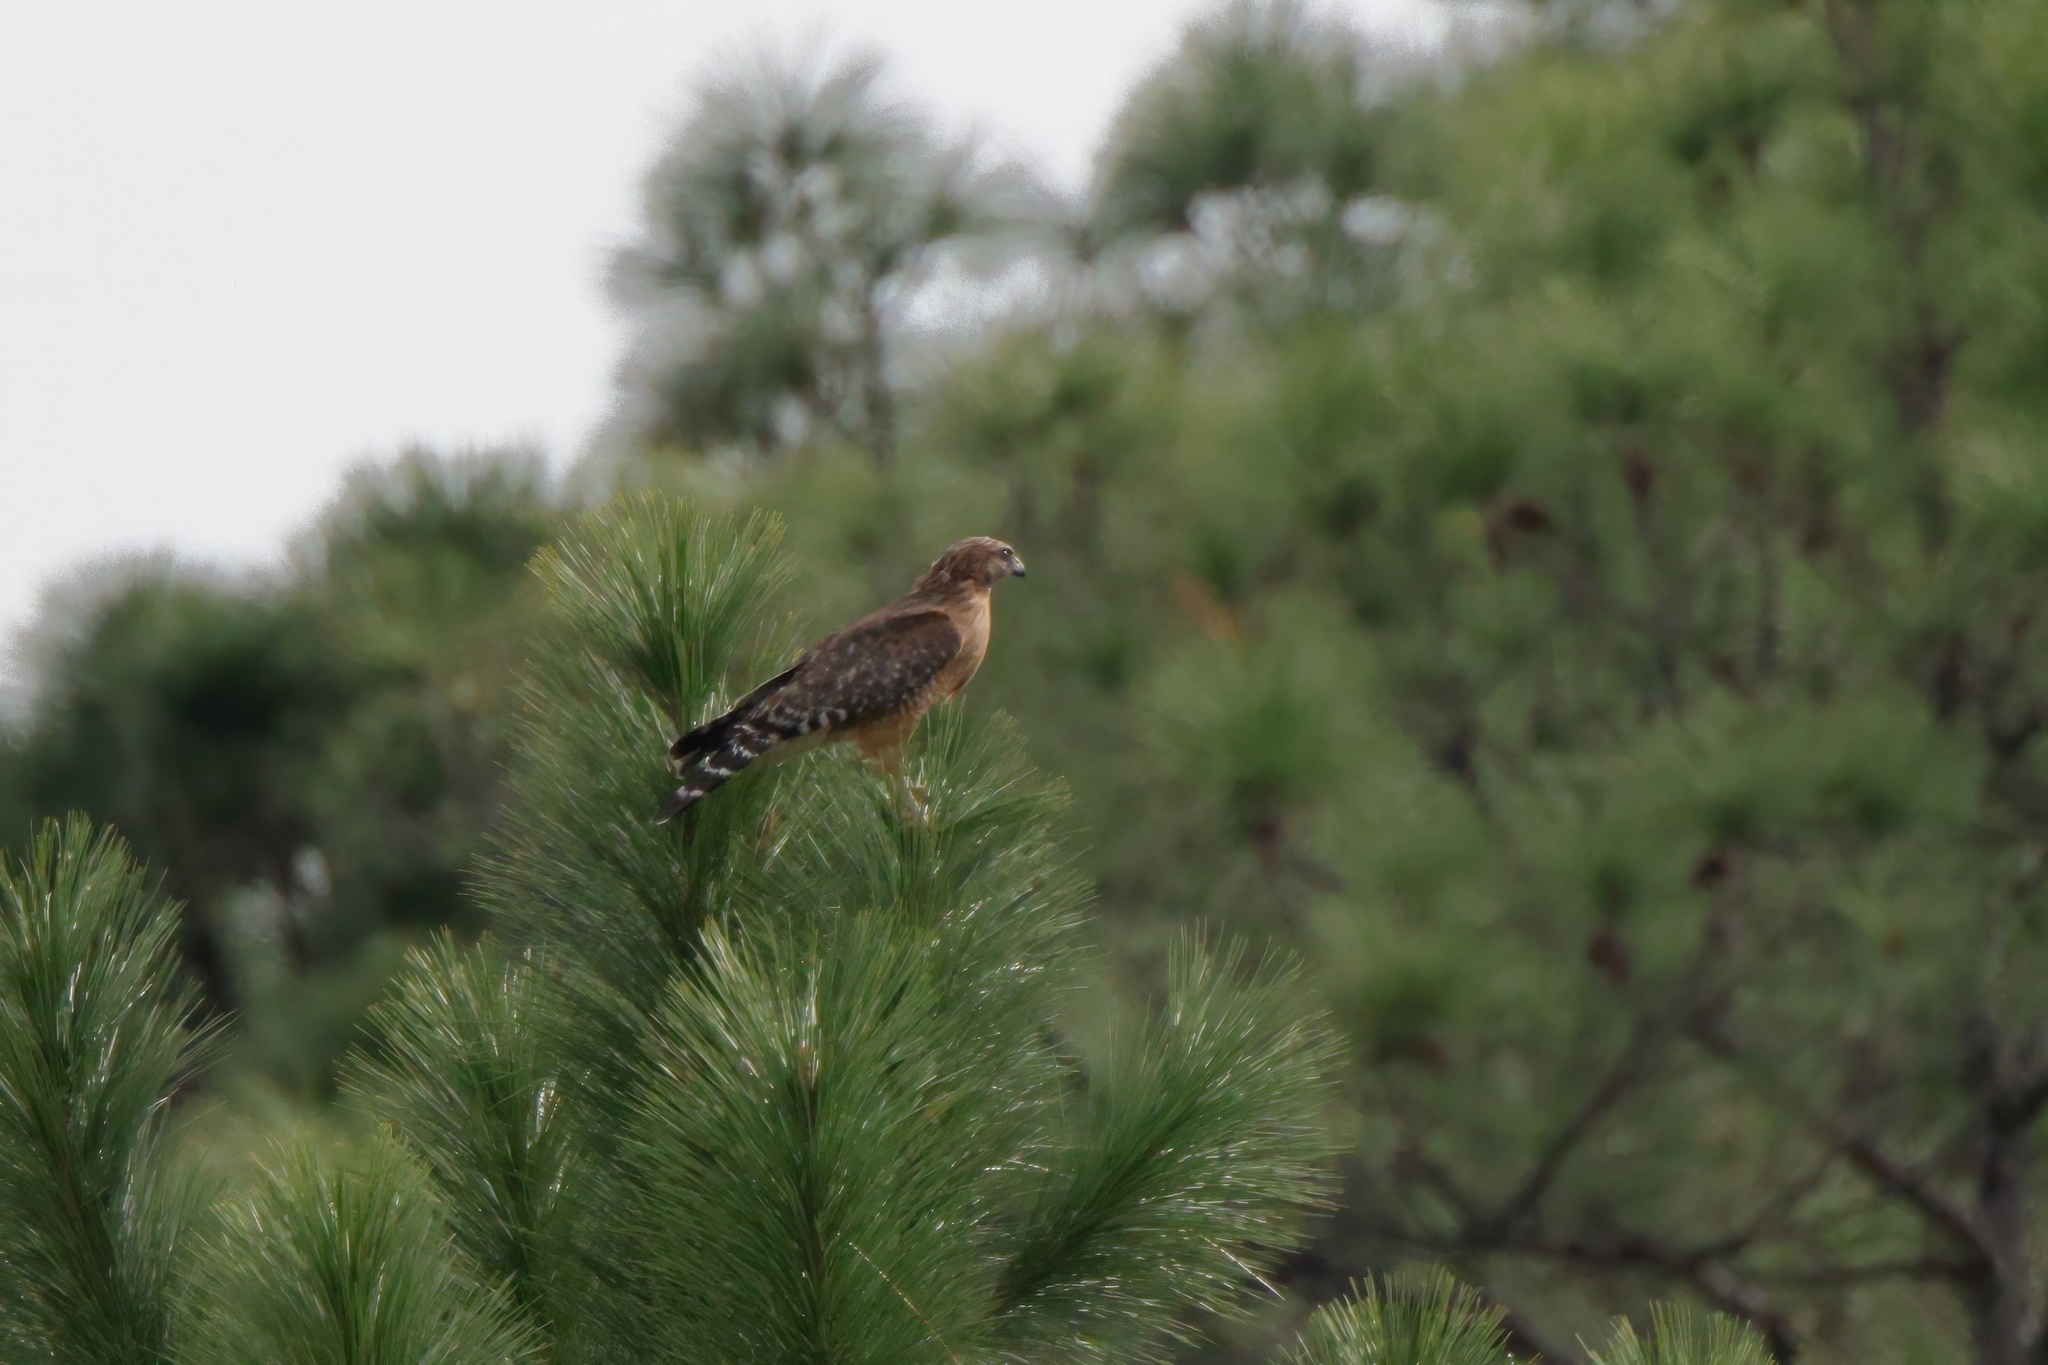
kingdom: Animalia
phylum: Chordata
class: Aves
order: Accipitriformes
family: Accipitridae
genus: Buteo
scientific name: Buteo lineatus
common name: Red-shouldered hawk
